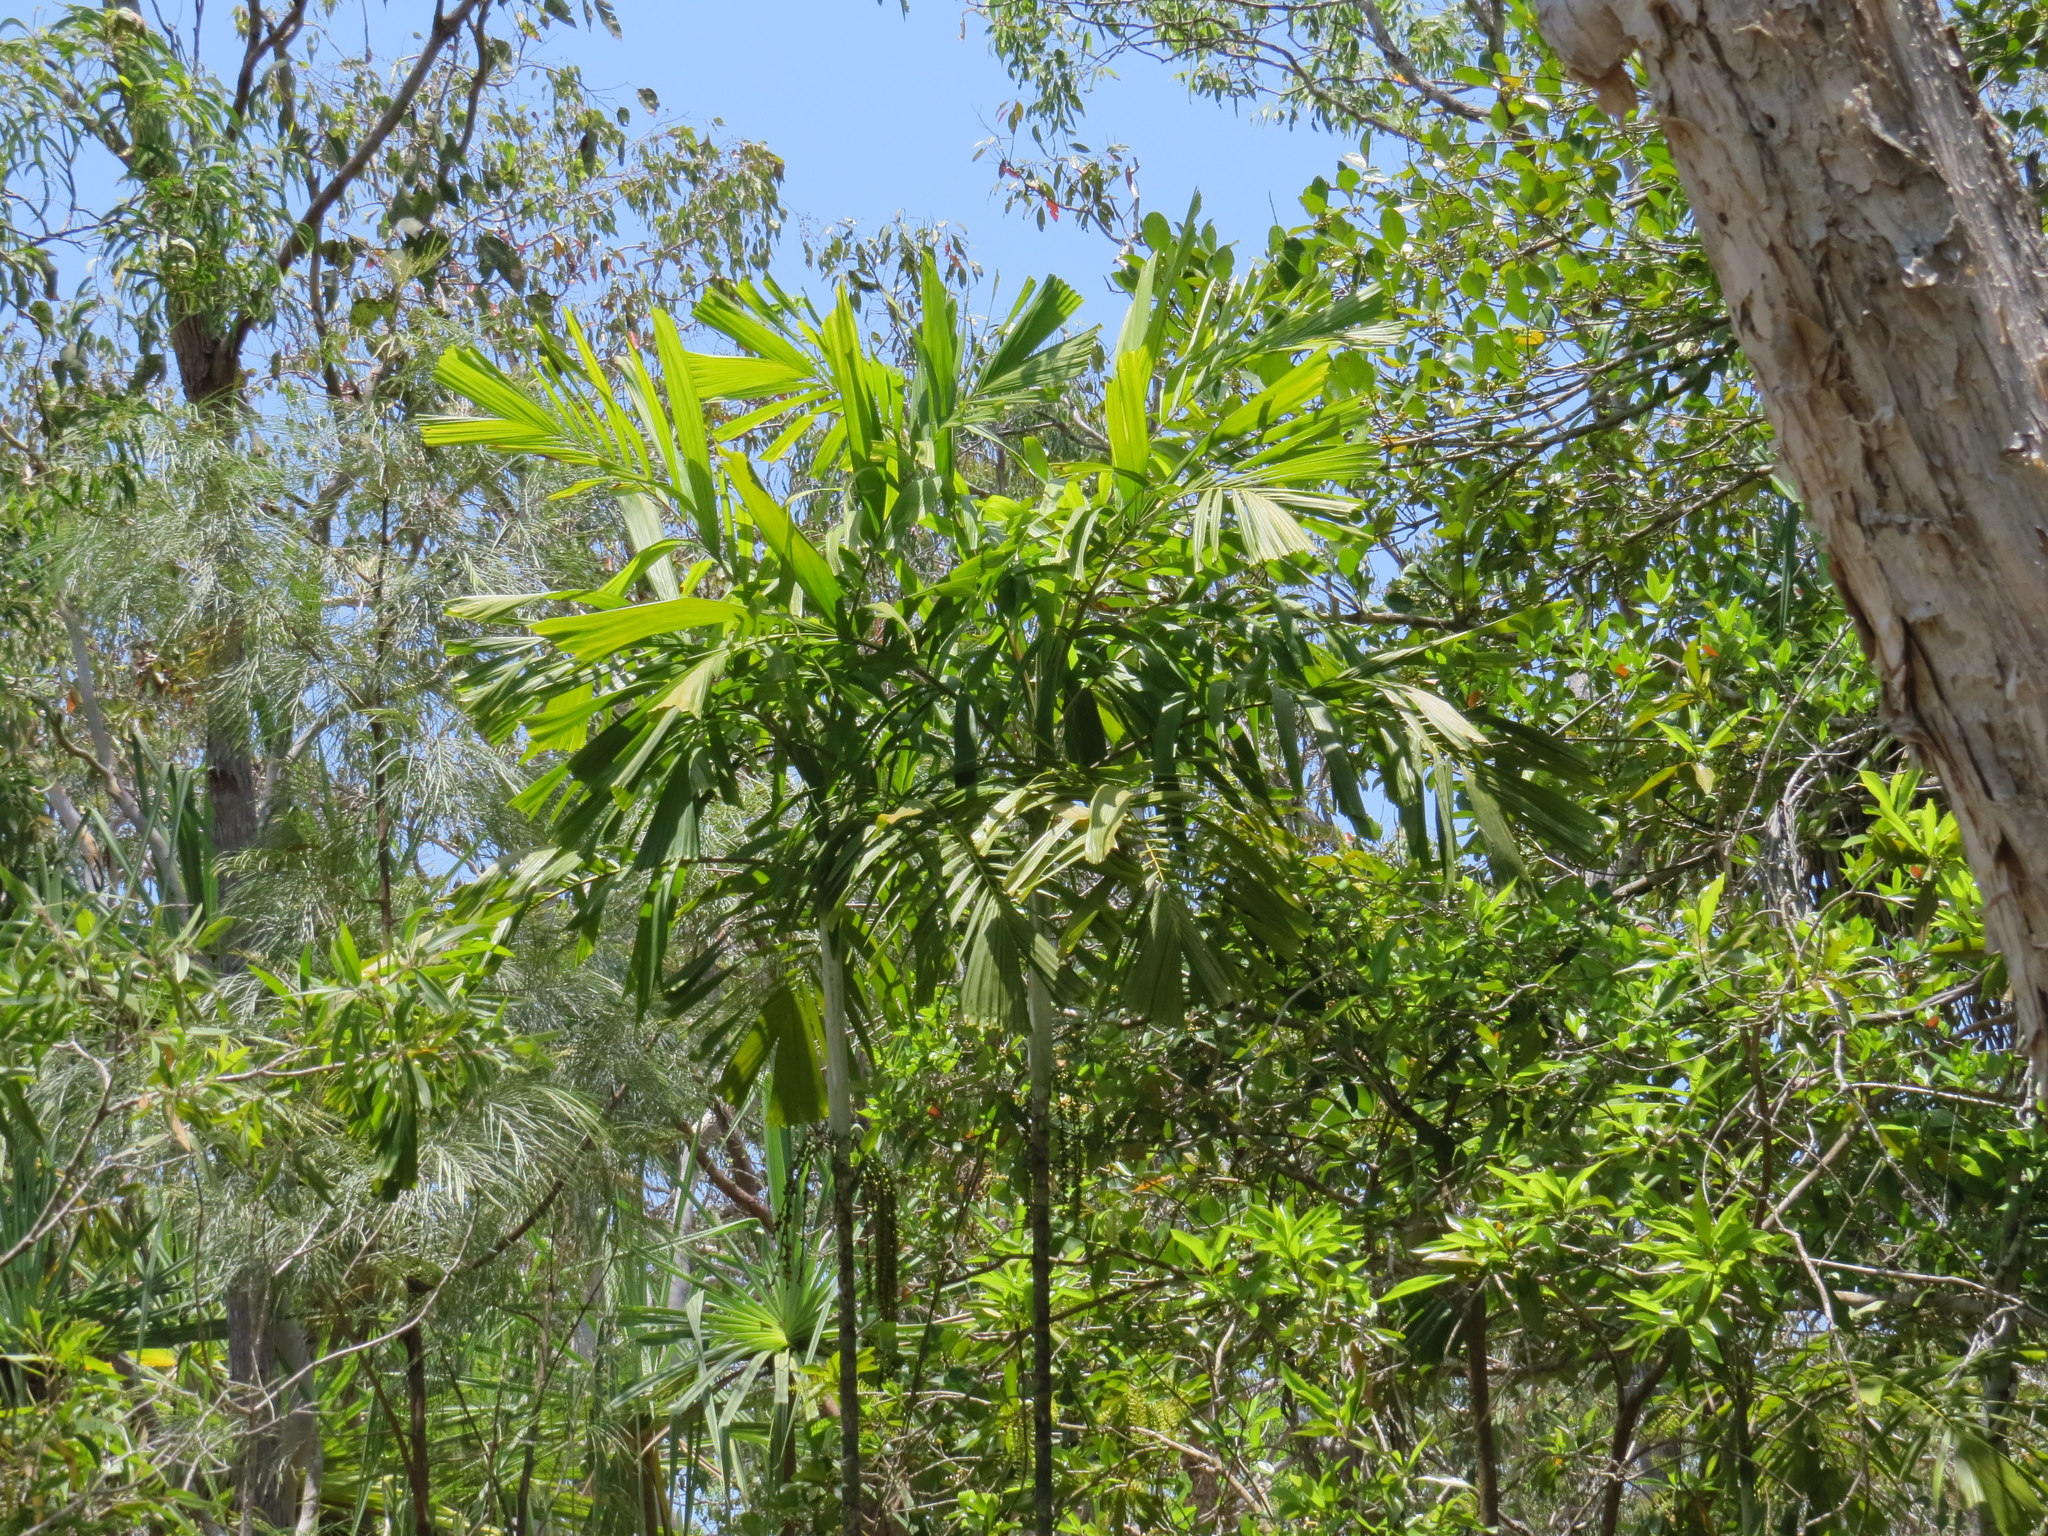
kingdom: Plantae
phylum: Tracheophyta
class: Liliopsida
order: Arecales
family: Arecaceae
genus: Hydriastele
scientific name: Hydriastele wendlandiana
